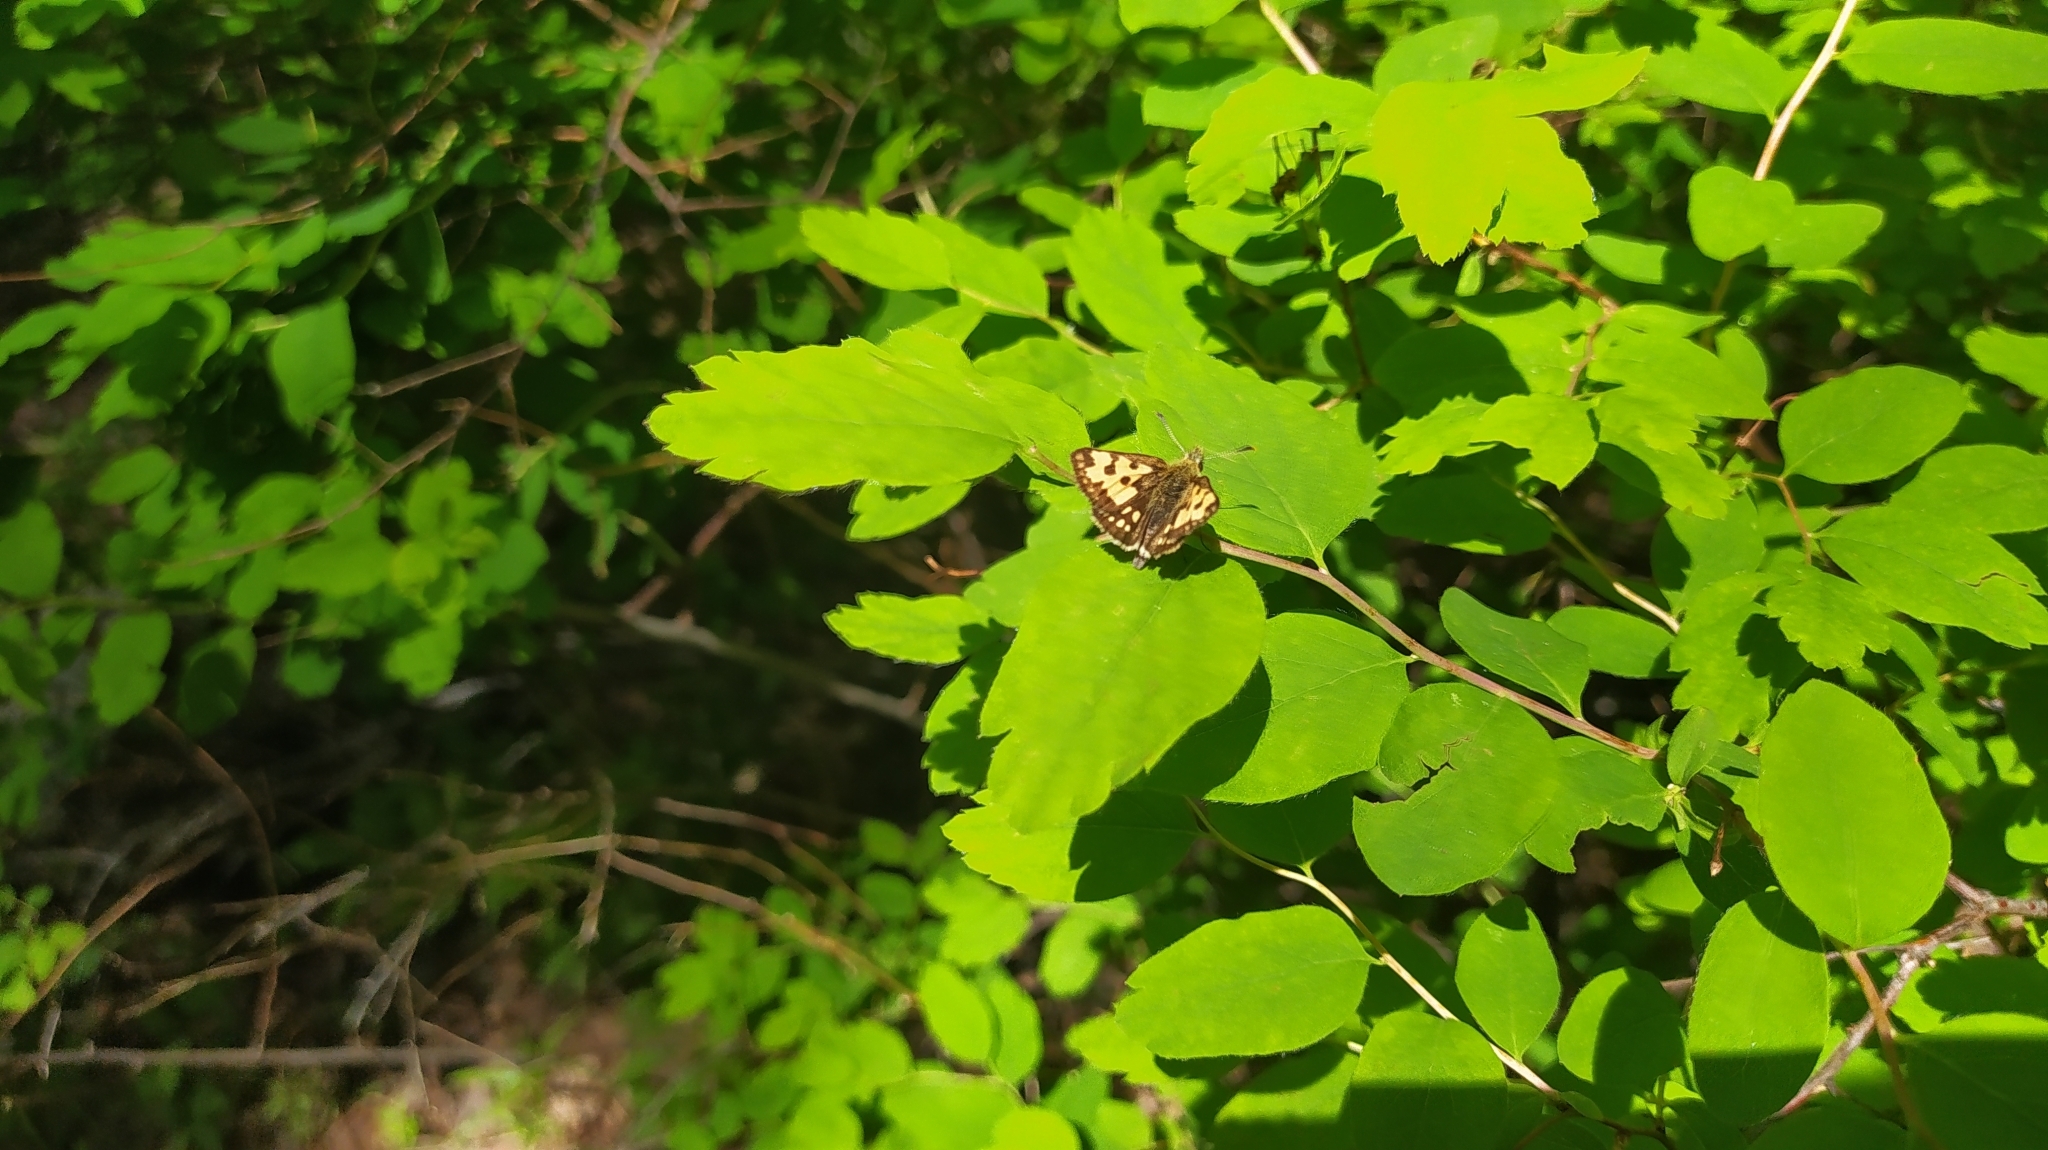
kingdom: Animalia
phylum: Arthropoda
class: Insecta
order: Lepidoptera
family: Hesperiidae
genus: Carterocephalus
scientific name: Carterocephalus silvicola
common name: Northern chequered skipper
